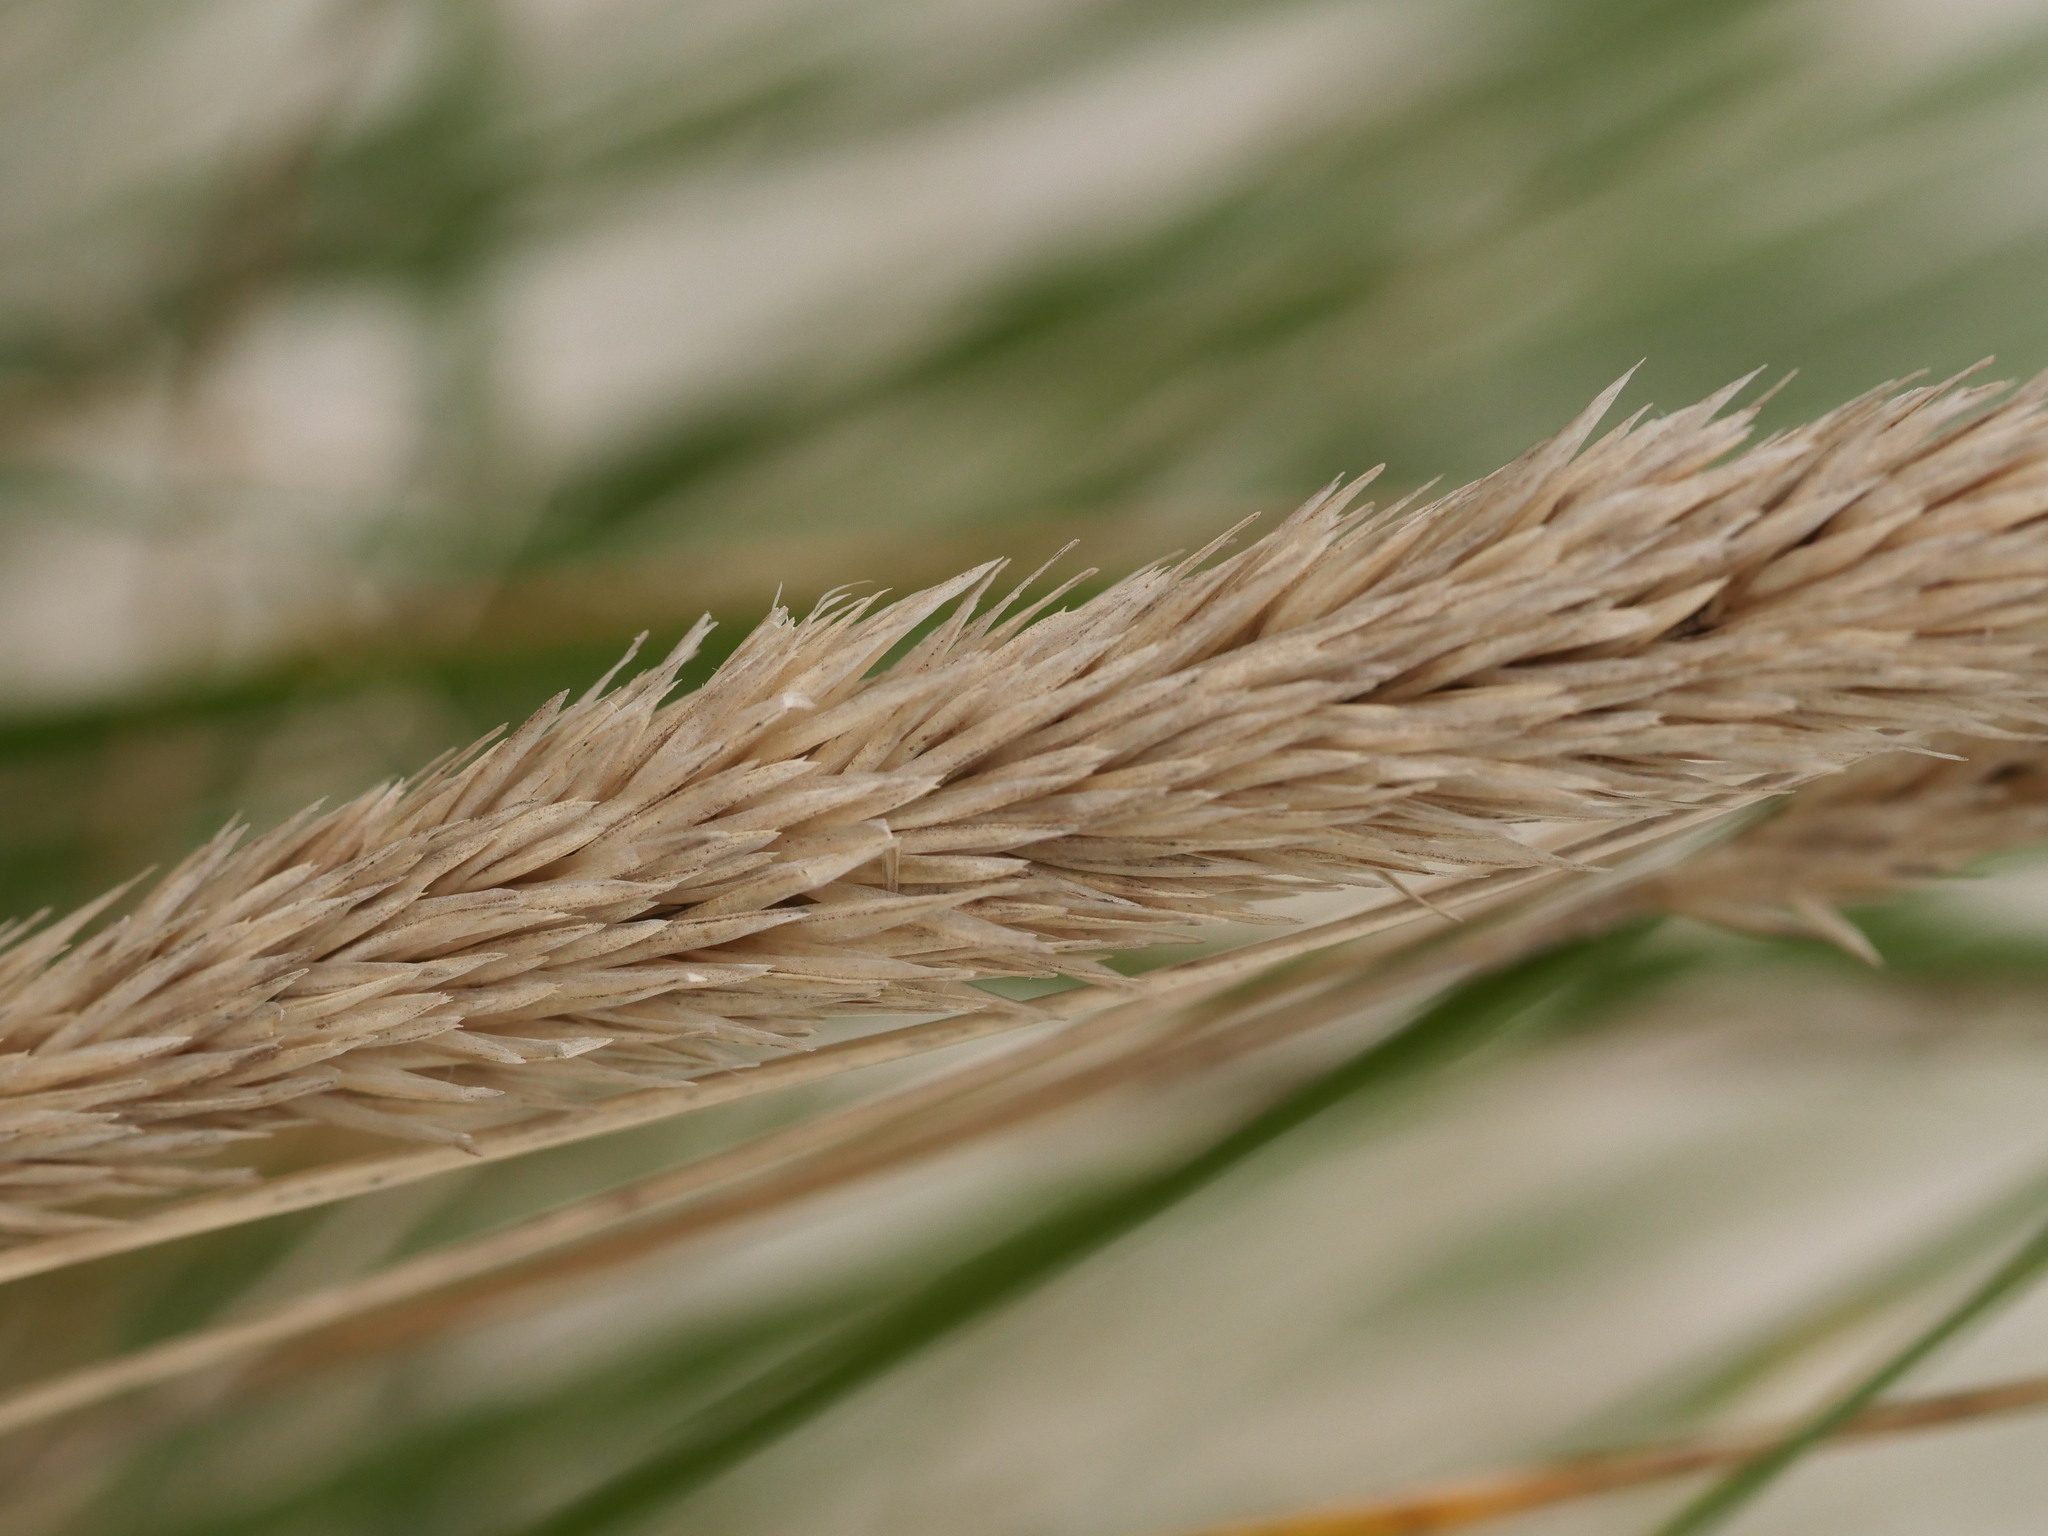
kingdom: Plantae
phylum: Tracheophyta
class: Liliopsida
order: Poales
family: Poaceae
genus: Calamagrostis
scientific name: Calamagrostis arenaria
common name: European beachgrass
